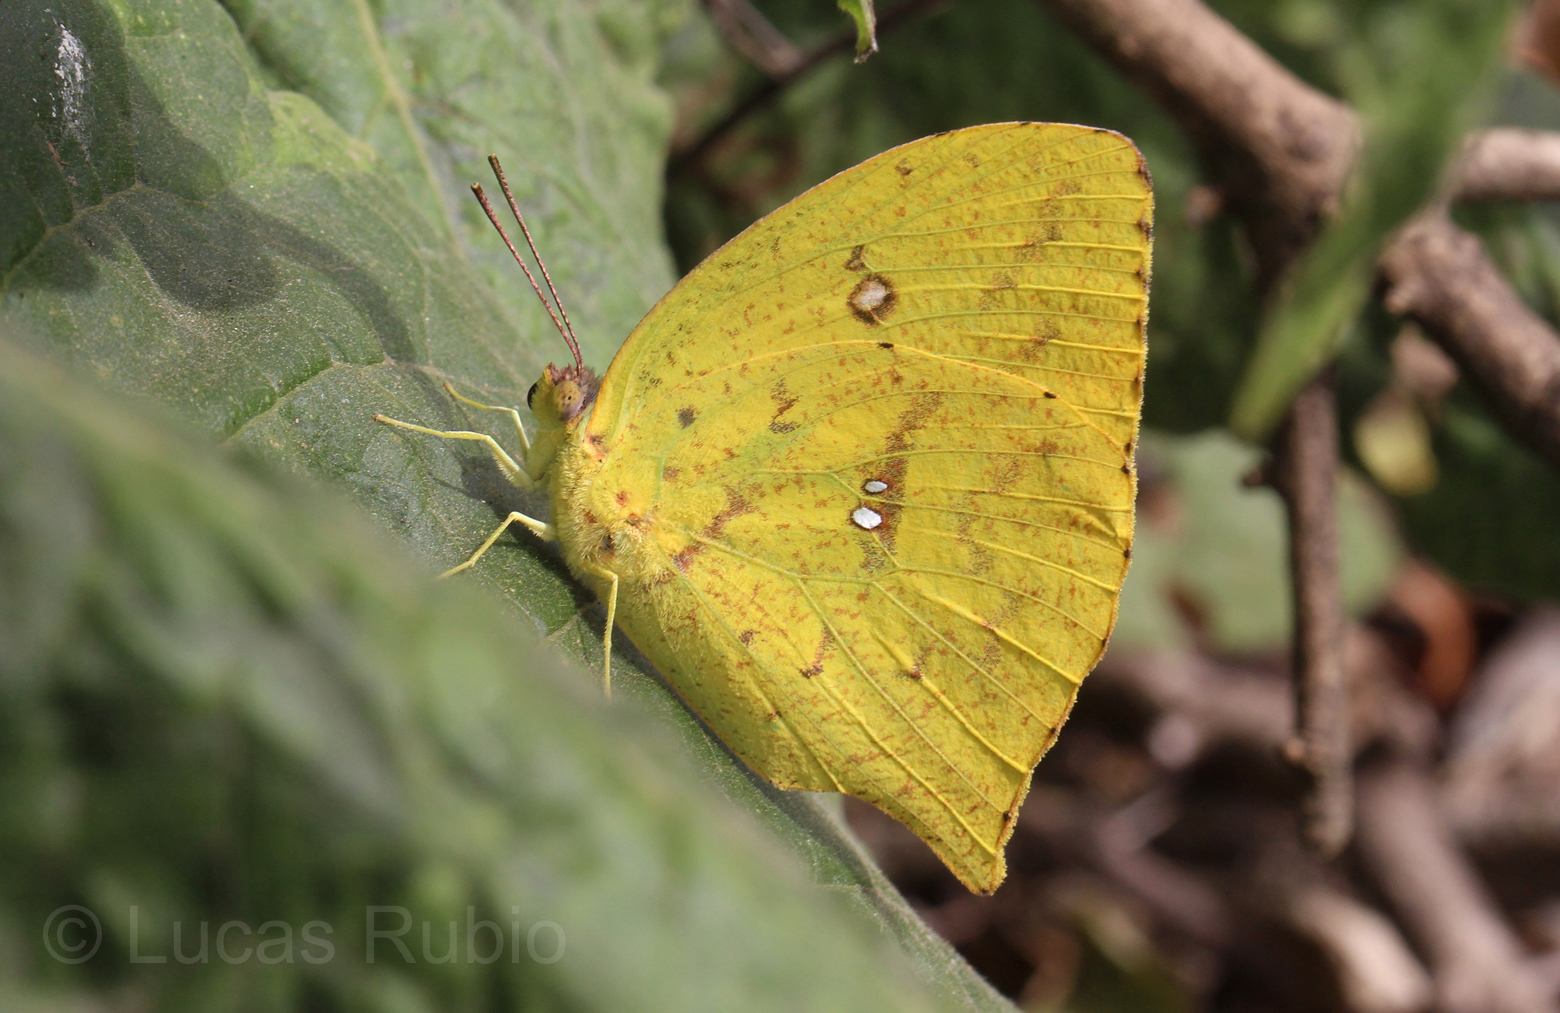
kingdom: Animalia
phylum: Arthropoda
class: Insecta
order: Lepidoptera
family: Pieridae
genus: Phoebis
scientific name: Phoebis neocypris
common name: Tailed sulphur
